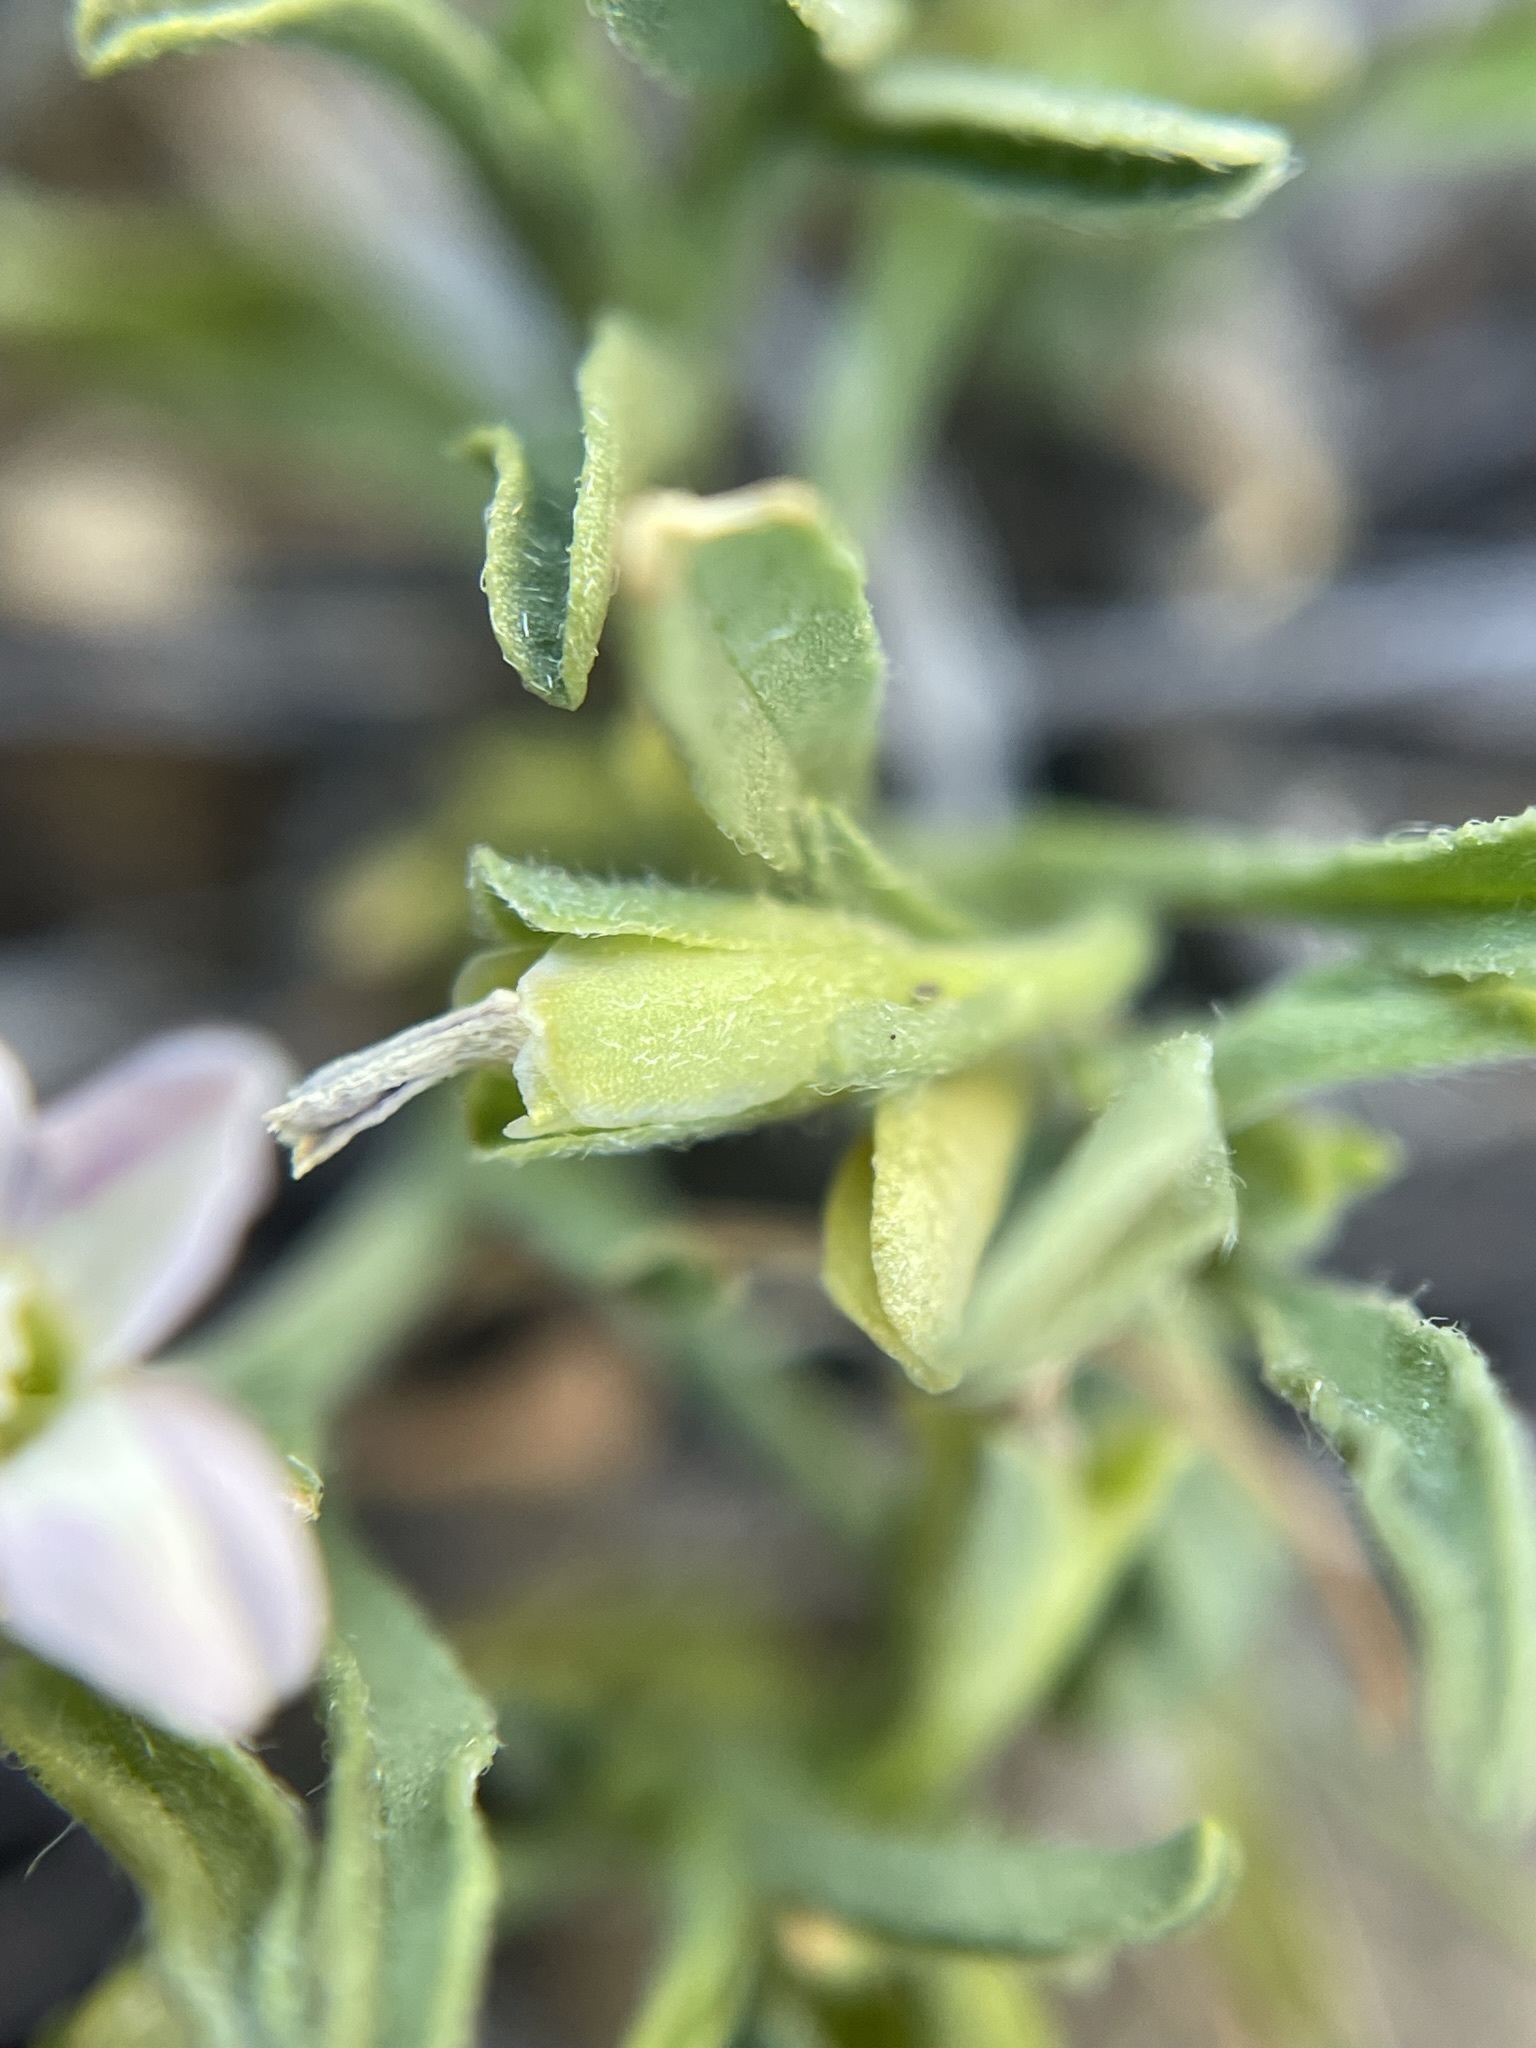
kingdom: Plantae
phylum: Tracheophyta
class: Magnoliopsida
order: Solanales
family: Convolvulaceae
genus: Convolvulus
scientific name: Convolvulus simulans
